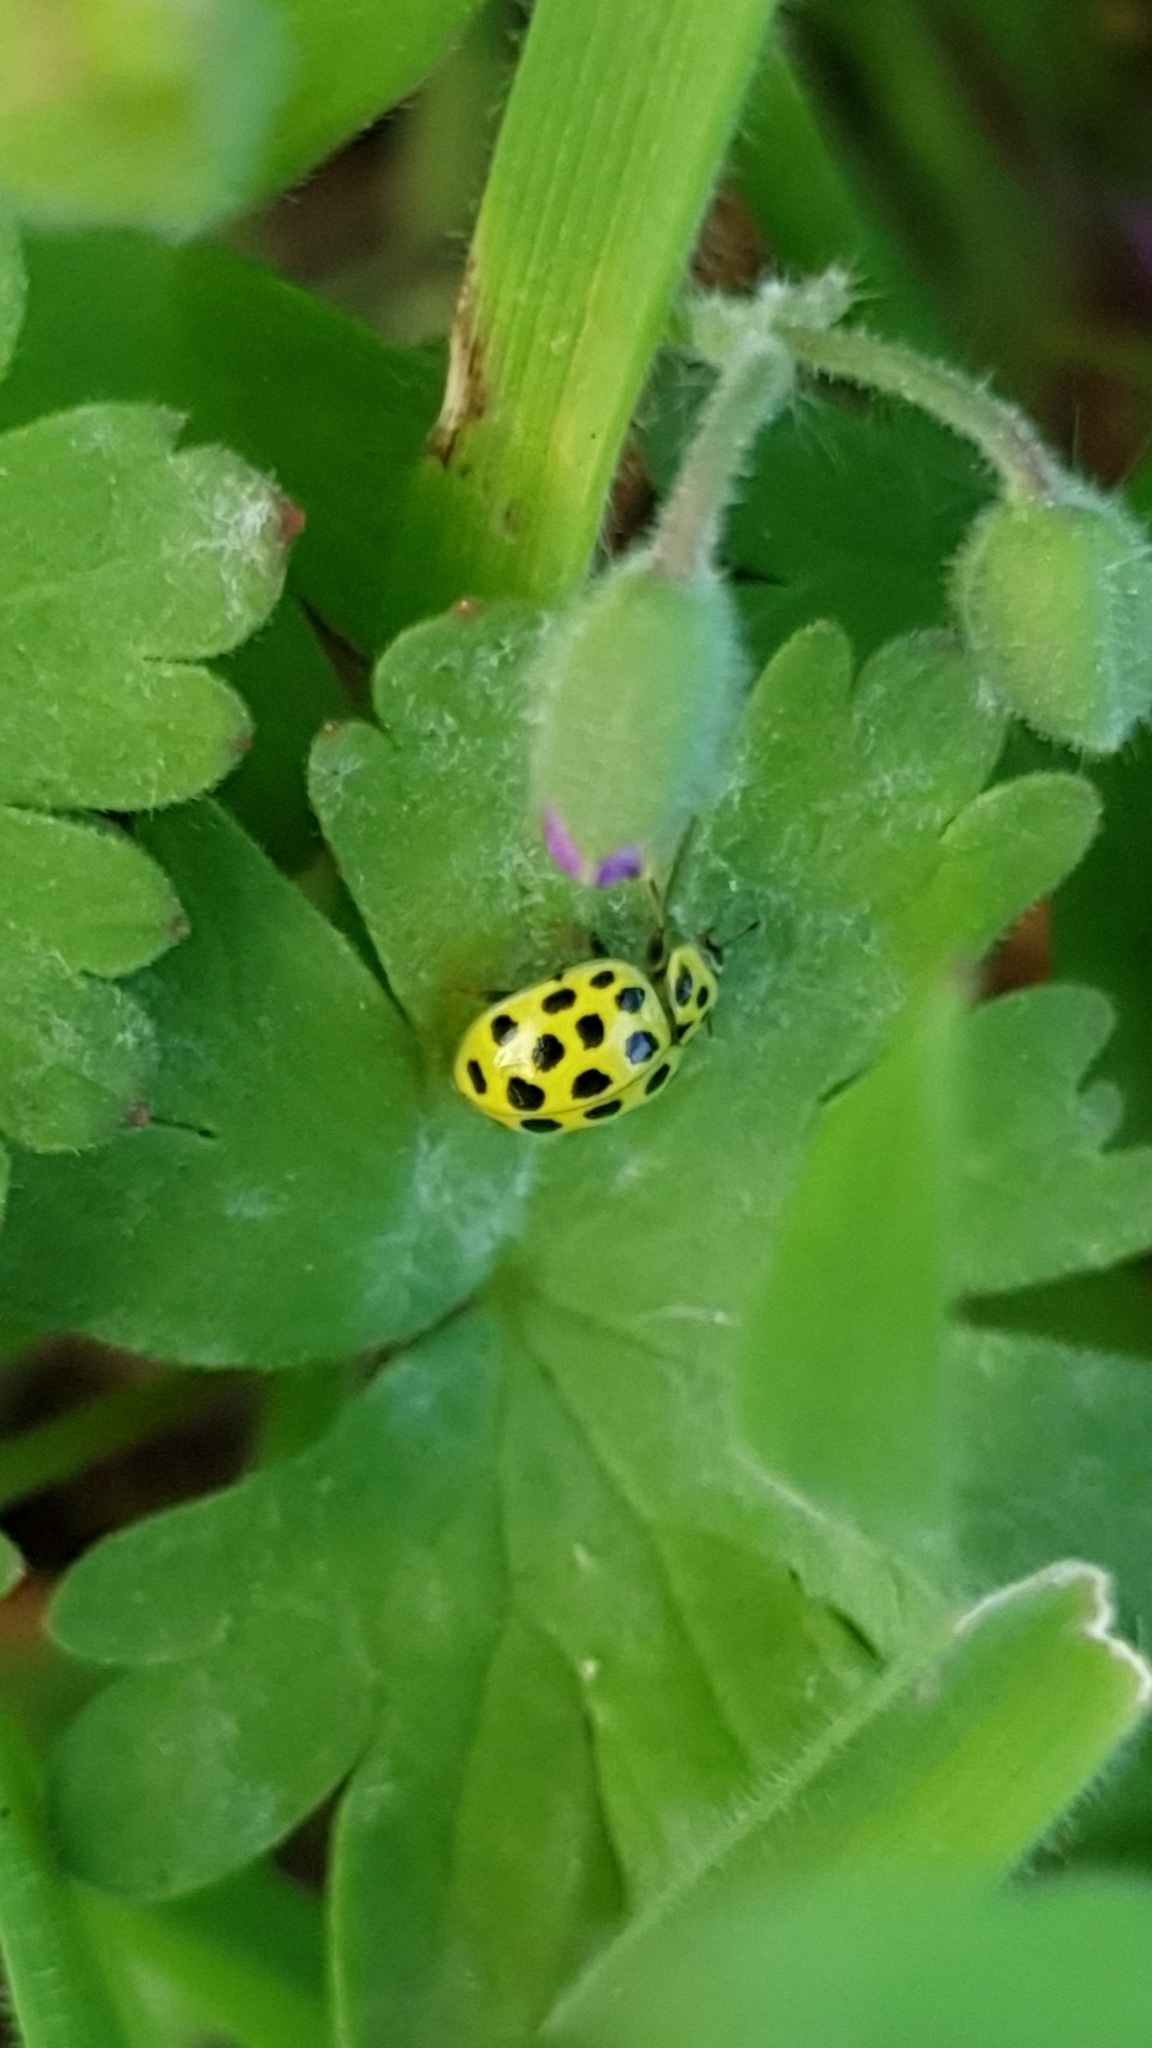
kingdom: Animalia
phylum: Arthropoda
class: Insecta
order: Coleoptera
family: Coccinellidae
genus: Psyllobora
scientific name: Psyllobora vigintiduopunctata
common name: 22-spot ladybird
